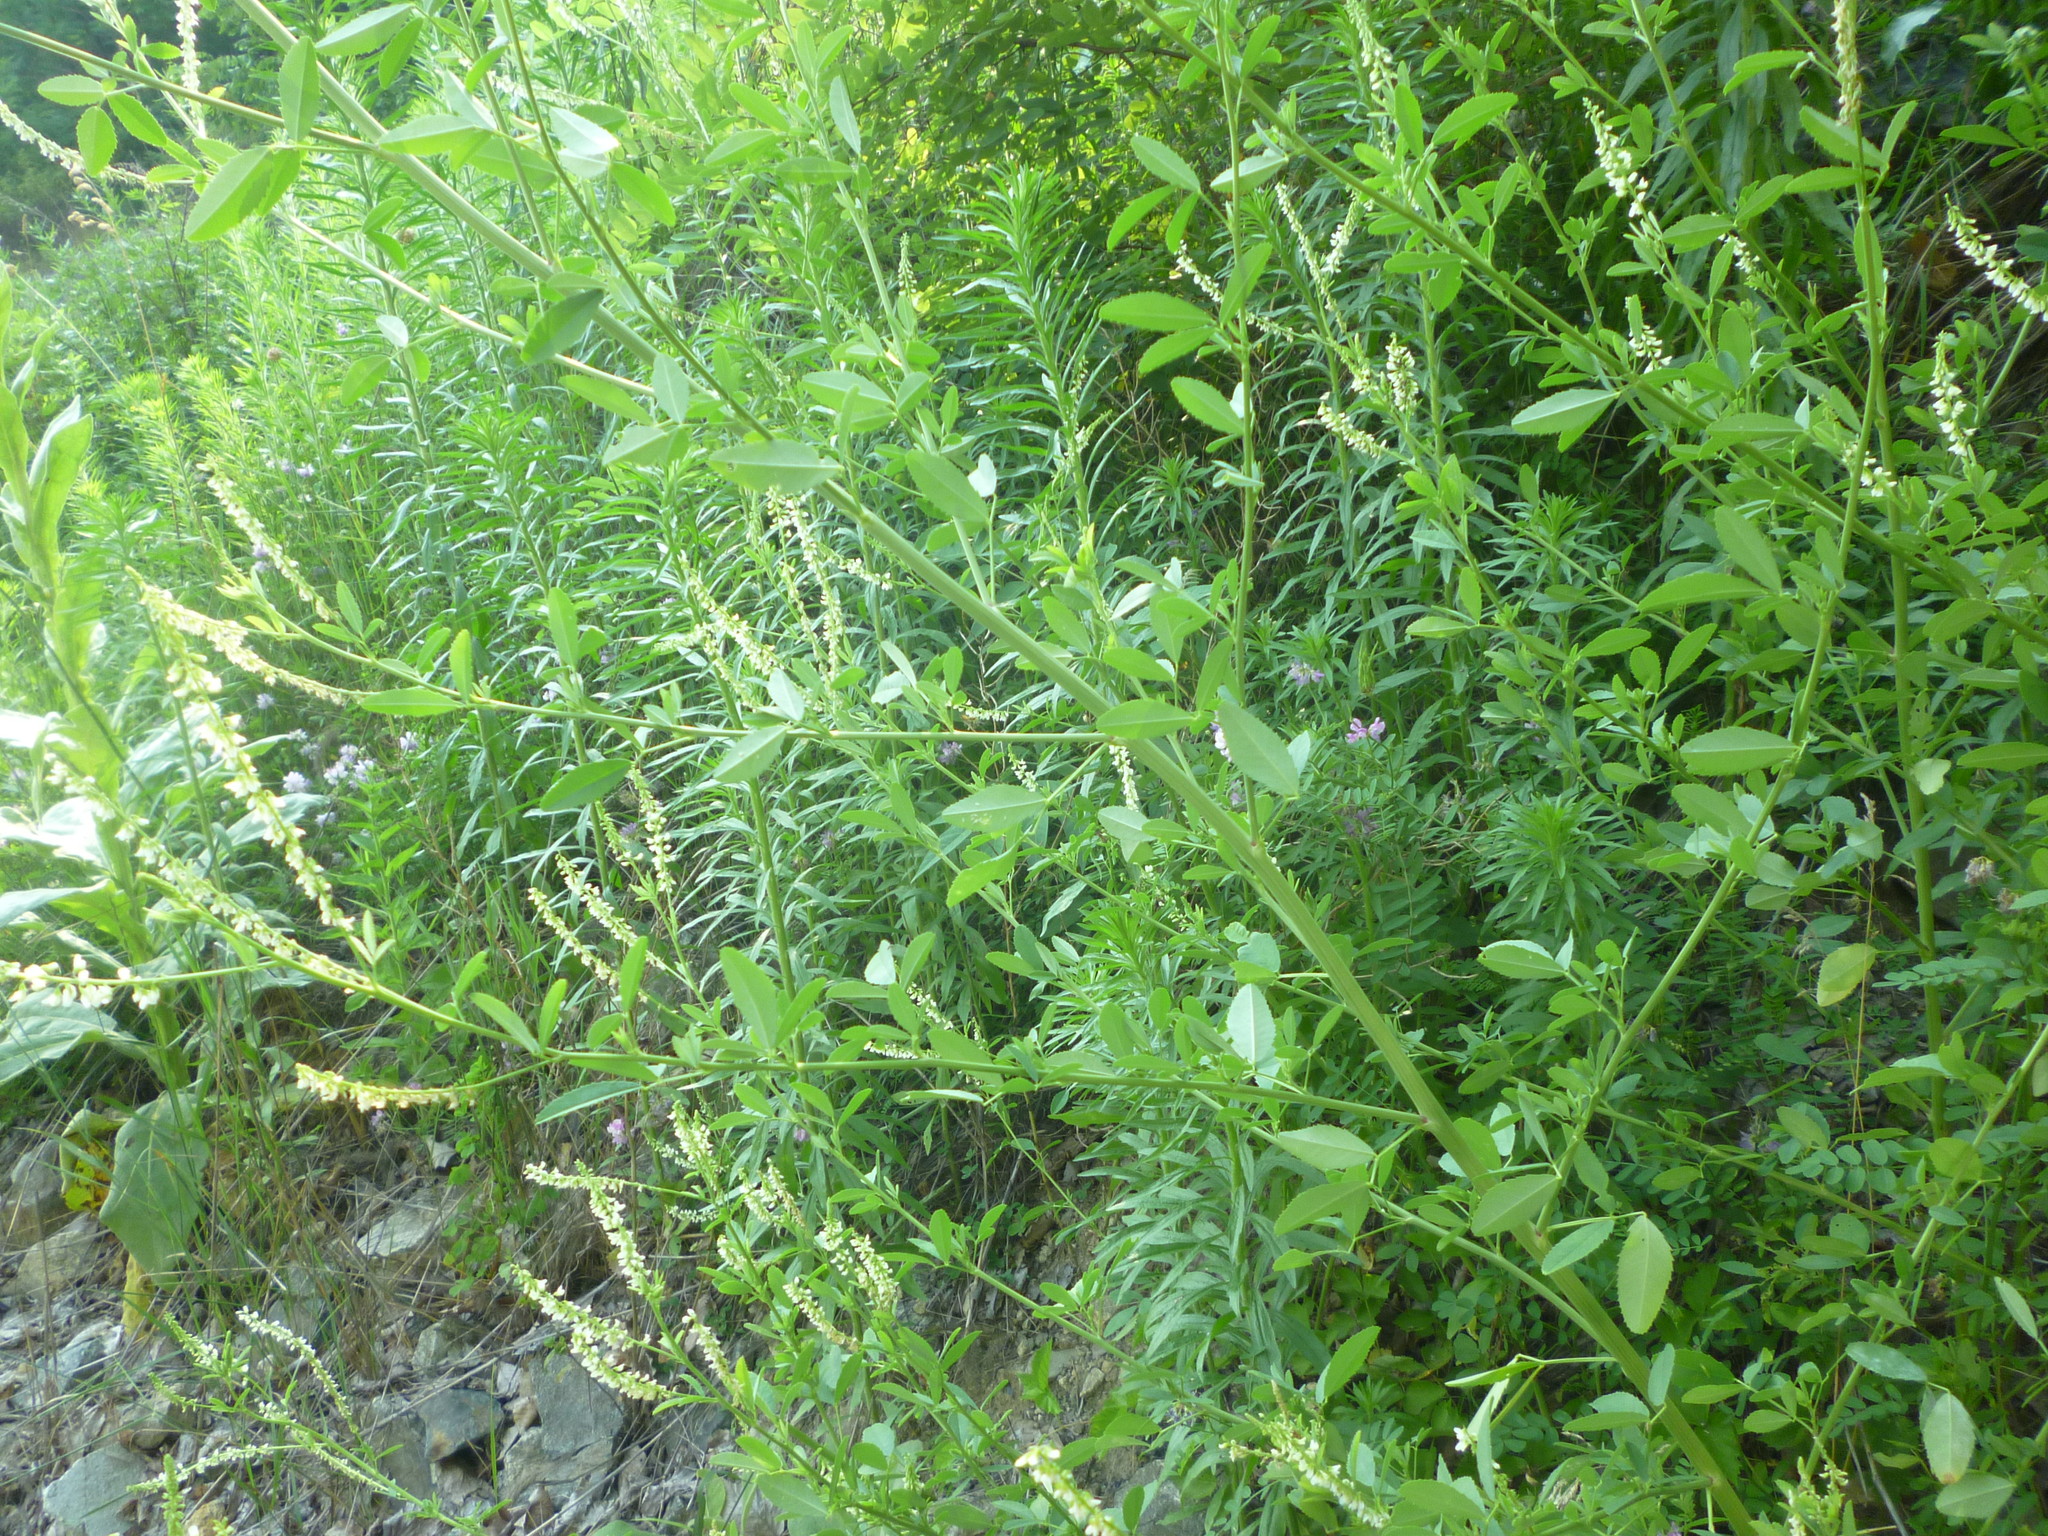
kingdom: Plantae
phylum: Tracheophyta
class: Magnoliopsida
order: Fabales
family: Fabaceae
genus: Melilotus
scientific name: Melilotus albus
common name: White melilot
